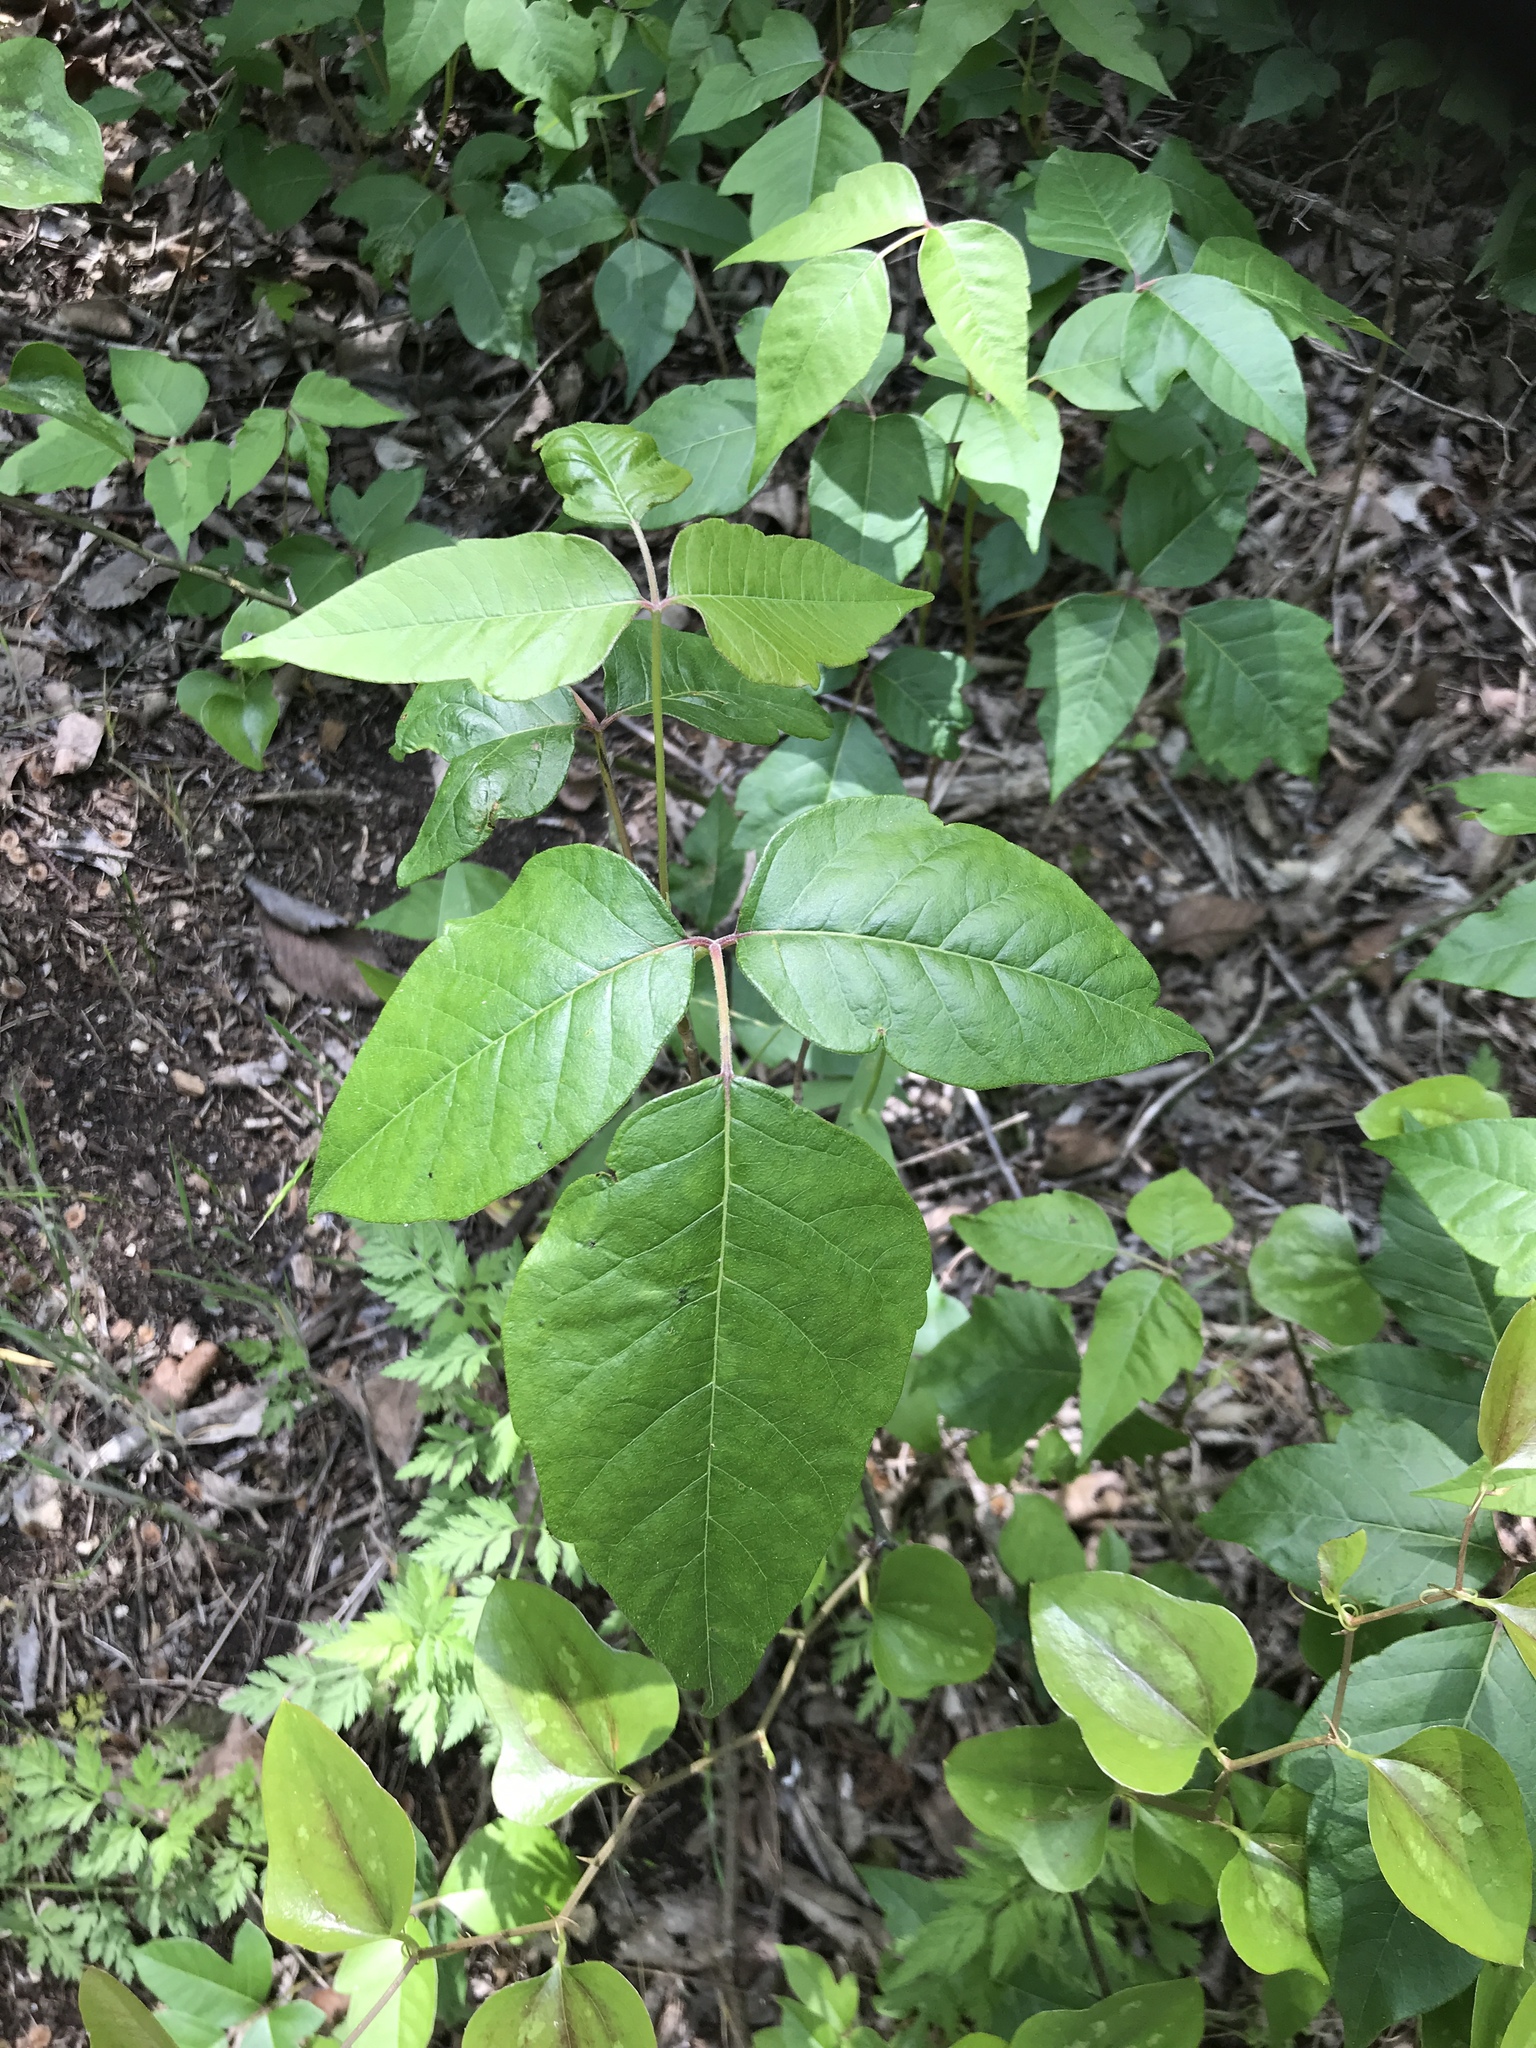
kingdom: Plantae
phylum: Tracheophyta
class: Magnoliopsida
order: Sapindales
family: Anacardiaceae
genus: Toxicodendron
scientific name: Toxicodendron radicans
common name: Poison ivy
